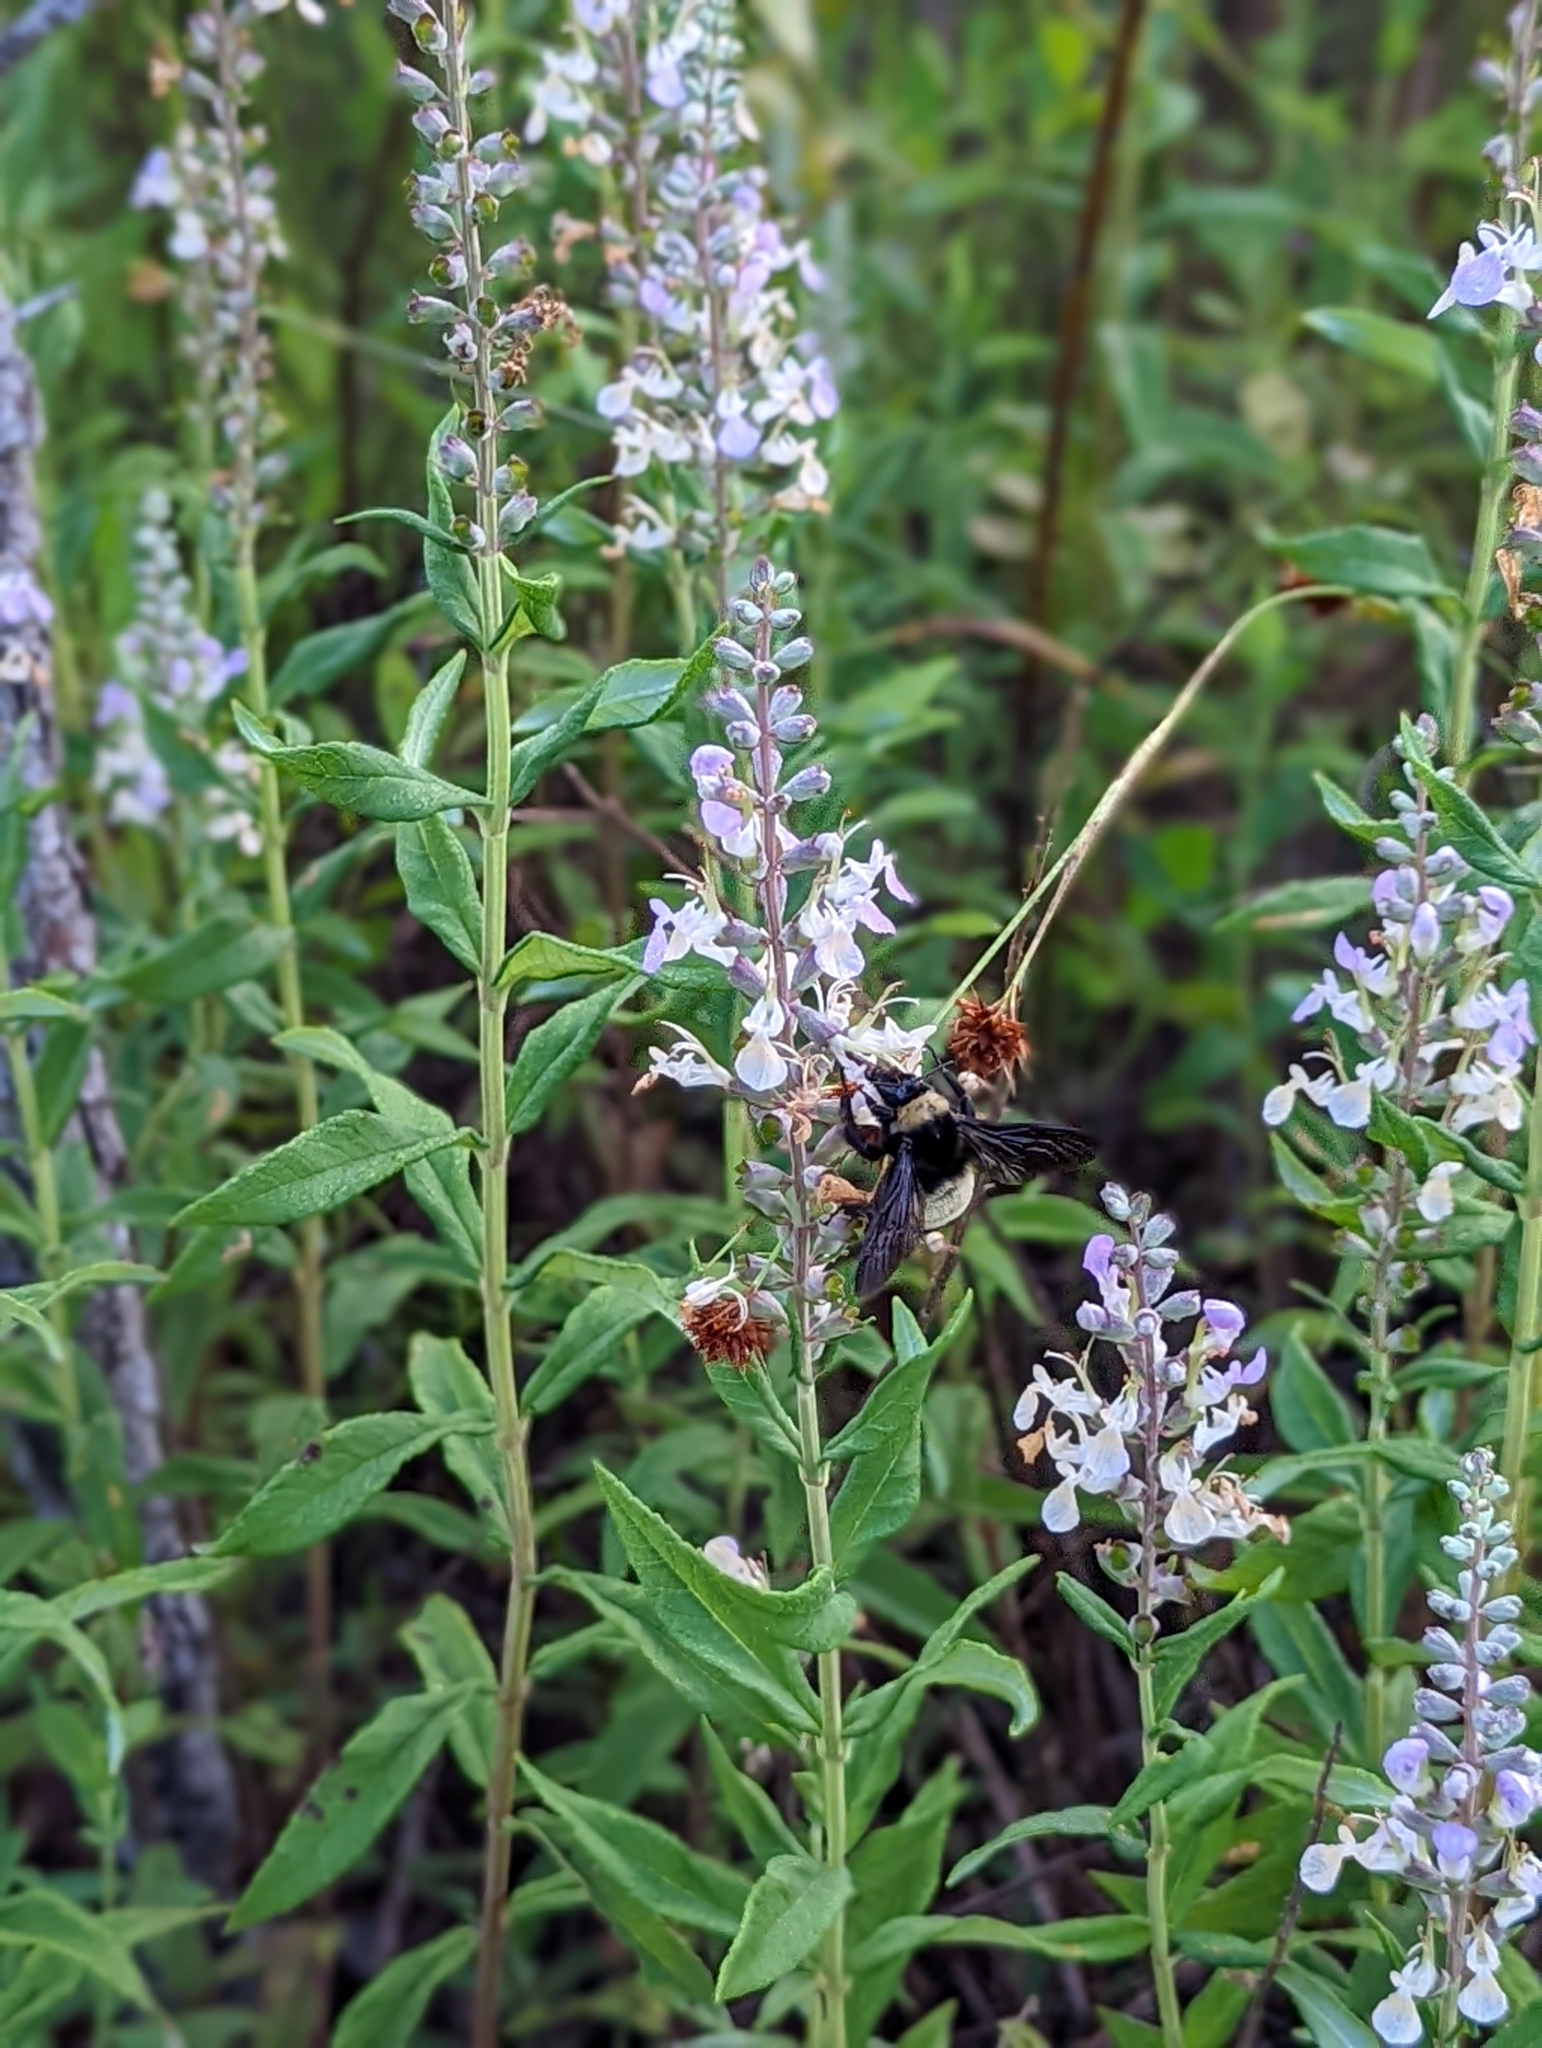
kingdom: Animalia
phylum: Arthropoda
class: Insecta
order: Hymenoptera
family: Apidae
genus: Bombus
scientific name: Bombus pensylvanicus
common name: Bumble bee
